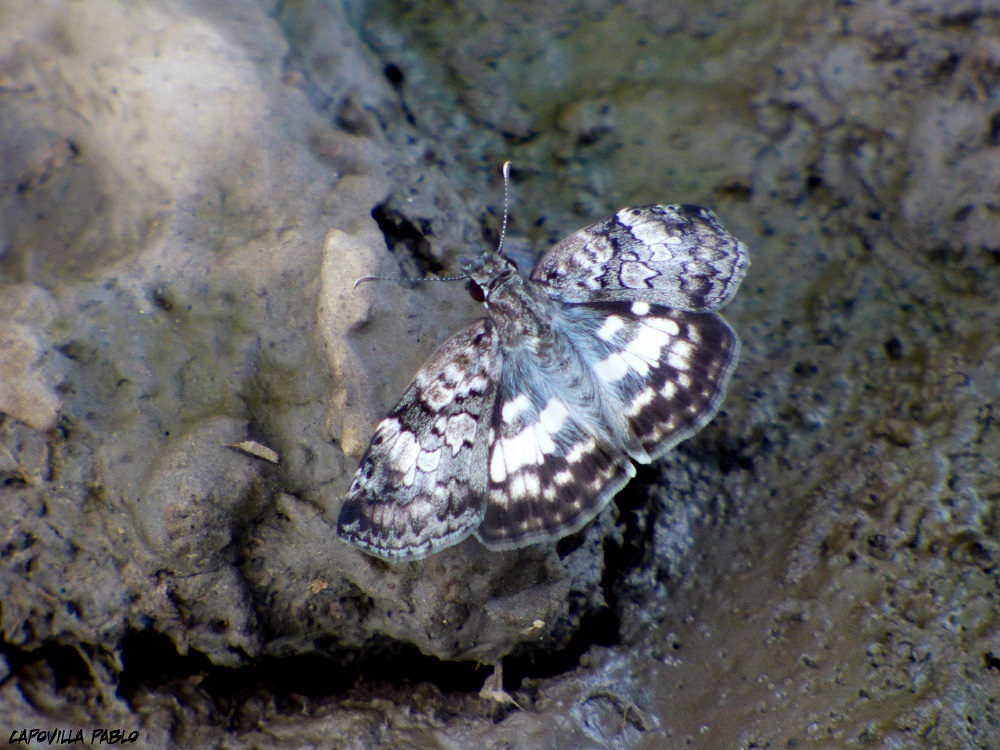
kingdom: Animalia
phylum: Arthropoda
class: Insecta
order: Lepidoptera
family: Hesperiidae
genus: Chiomara
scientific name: Chiomara asychis
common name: White-patterned skipper
